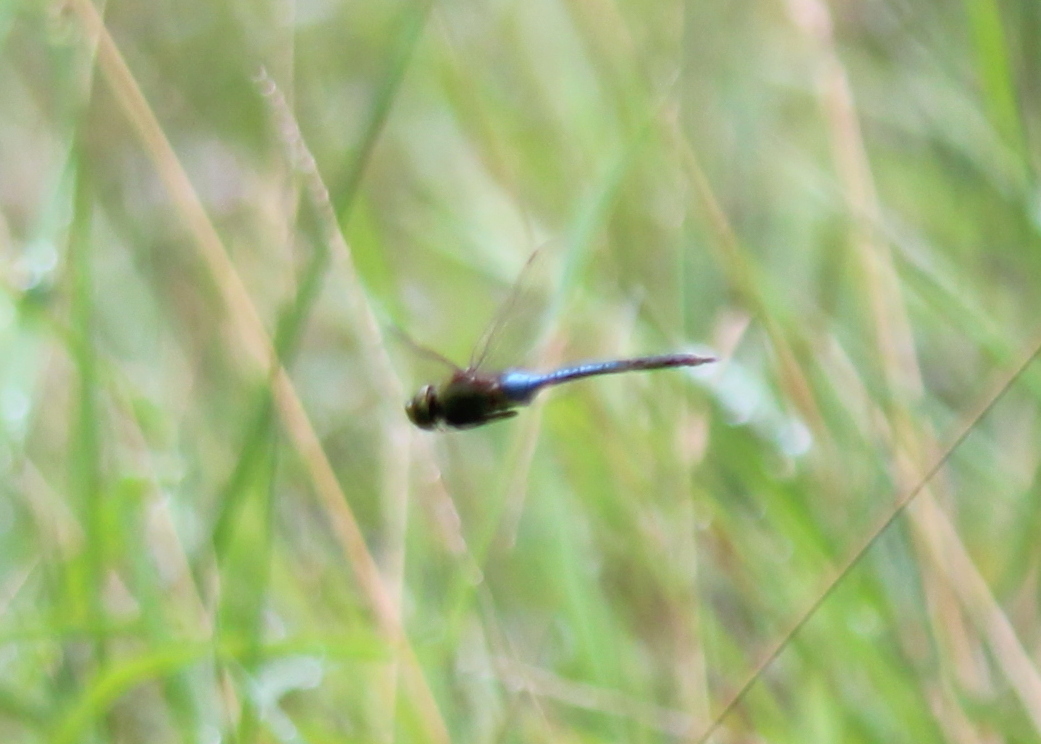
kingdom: Animalia
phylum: Arthropoda
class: Insecta
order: Odonata
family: Aeshnidae
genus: Anax
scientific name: Anax junius
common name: Common green darner
